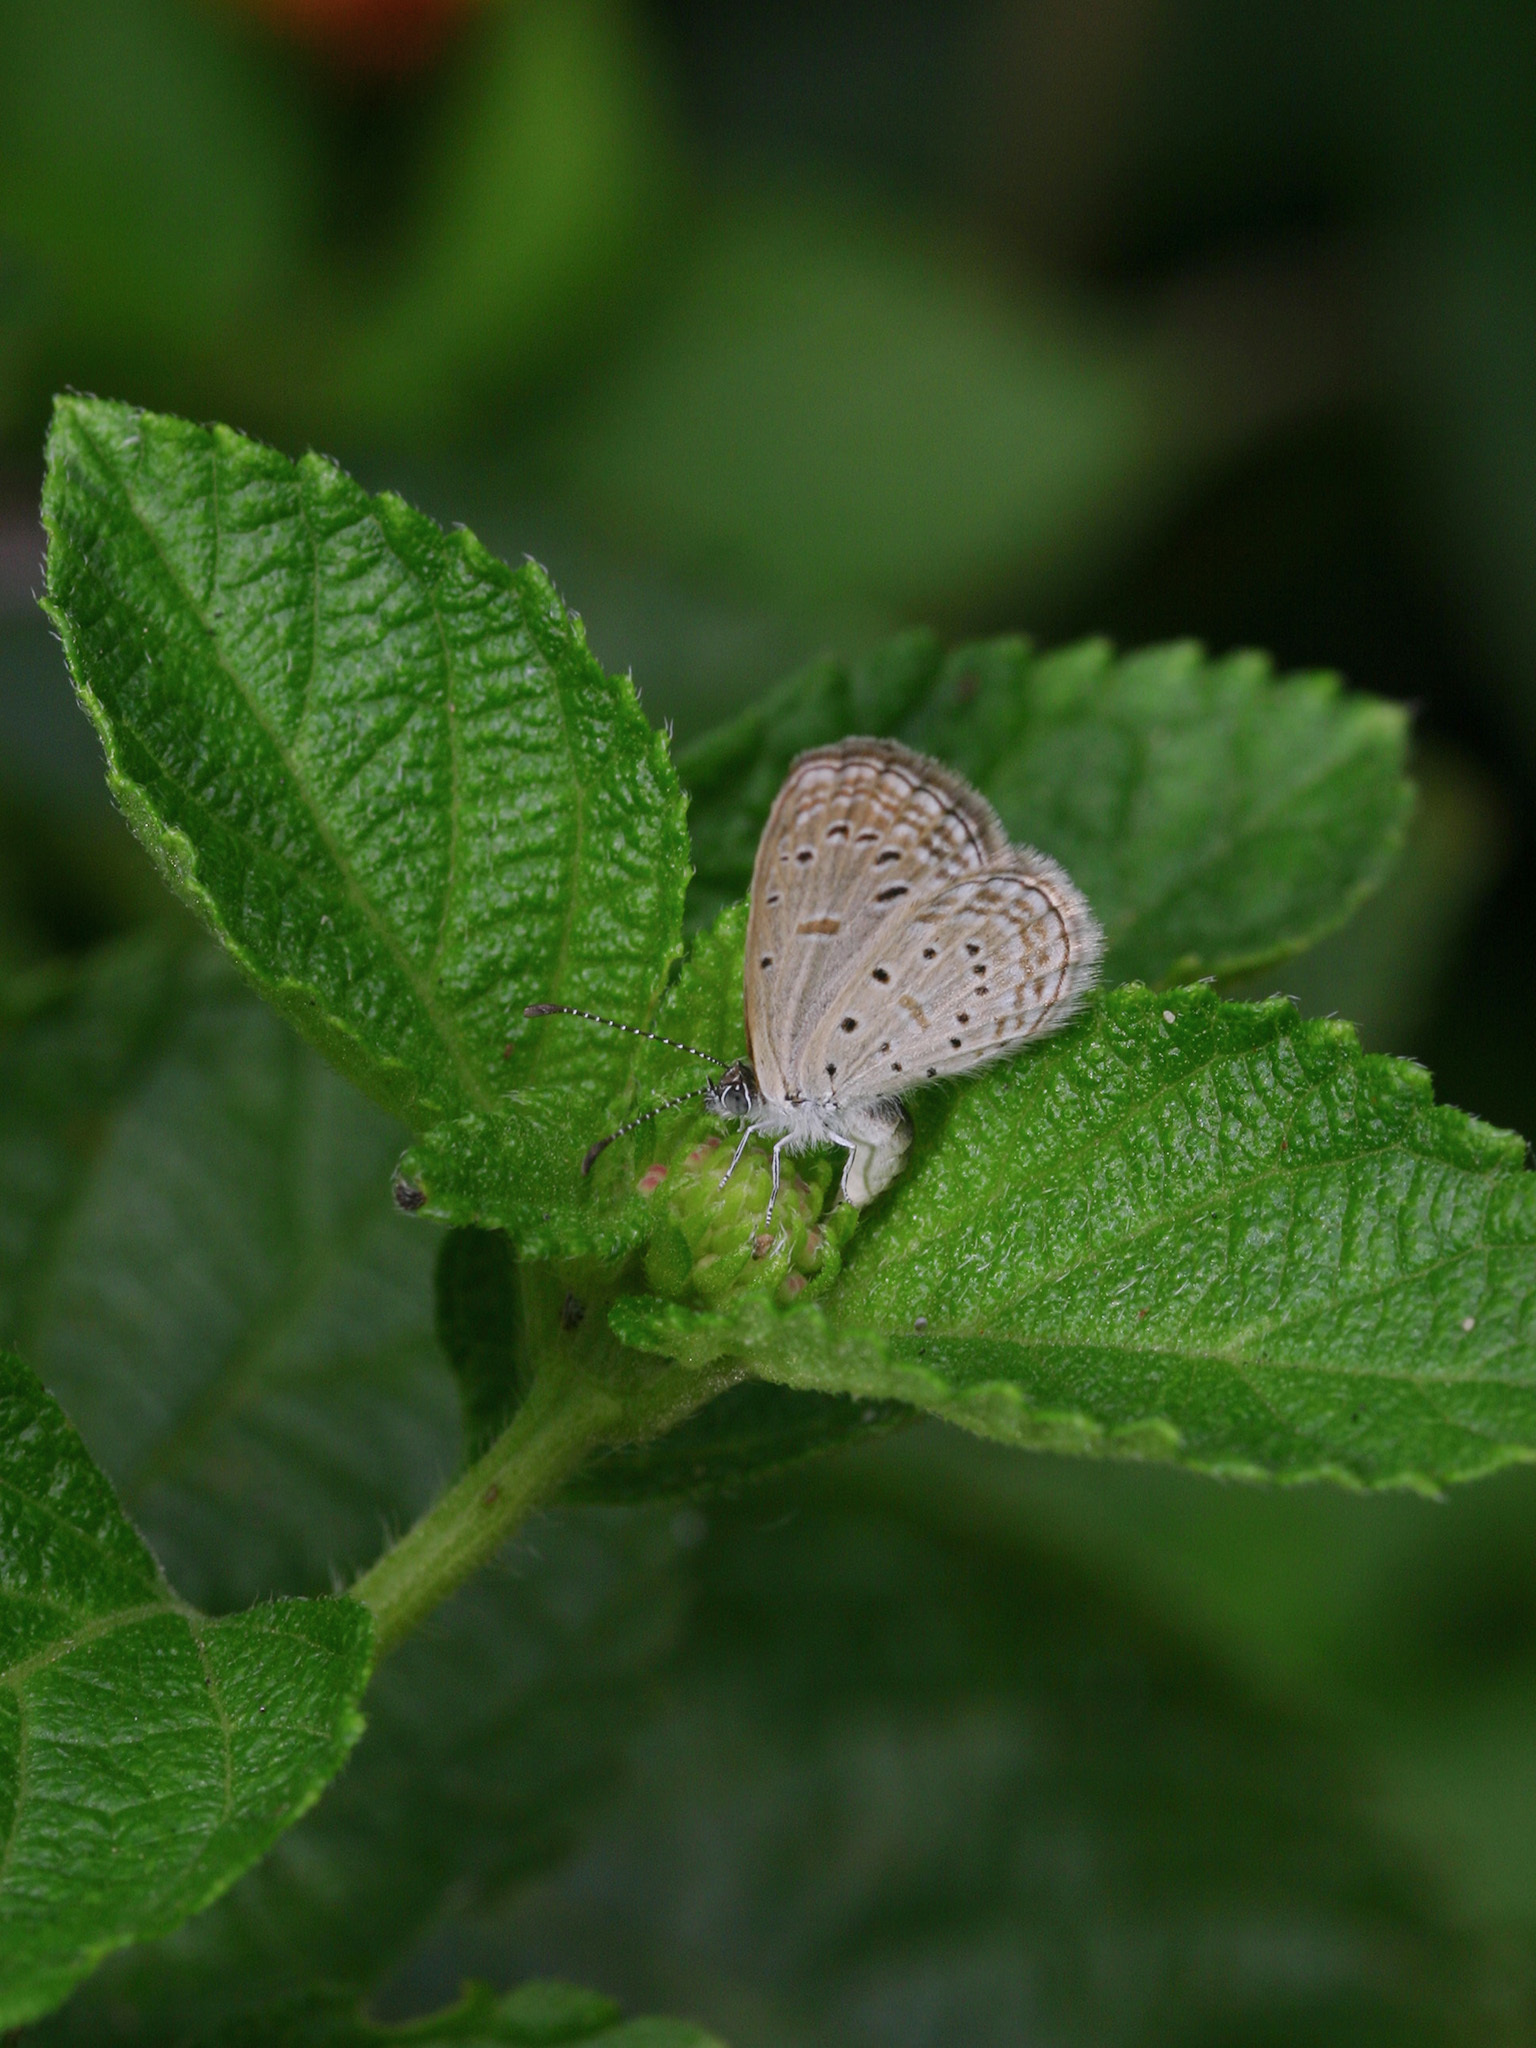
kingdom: Animalia
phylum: Arthropoda
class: Insecta
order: Lepidoptera
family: Lycaenidae
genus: Zizula
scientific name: Zizula hylax
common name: Gaika blue
